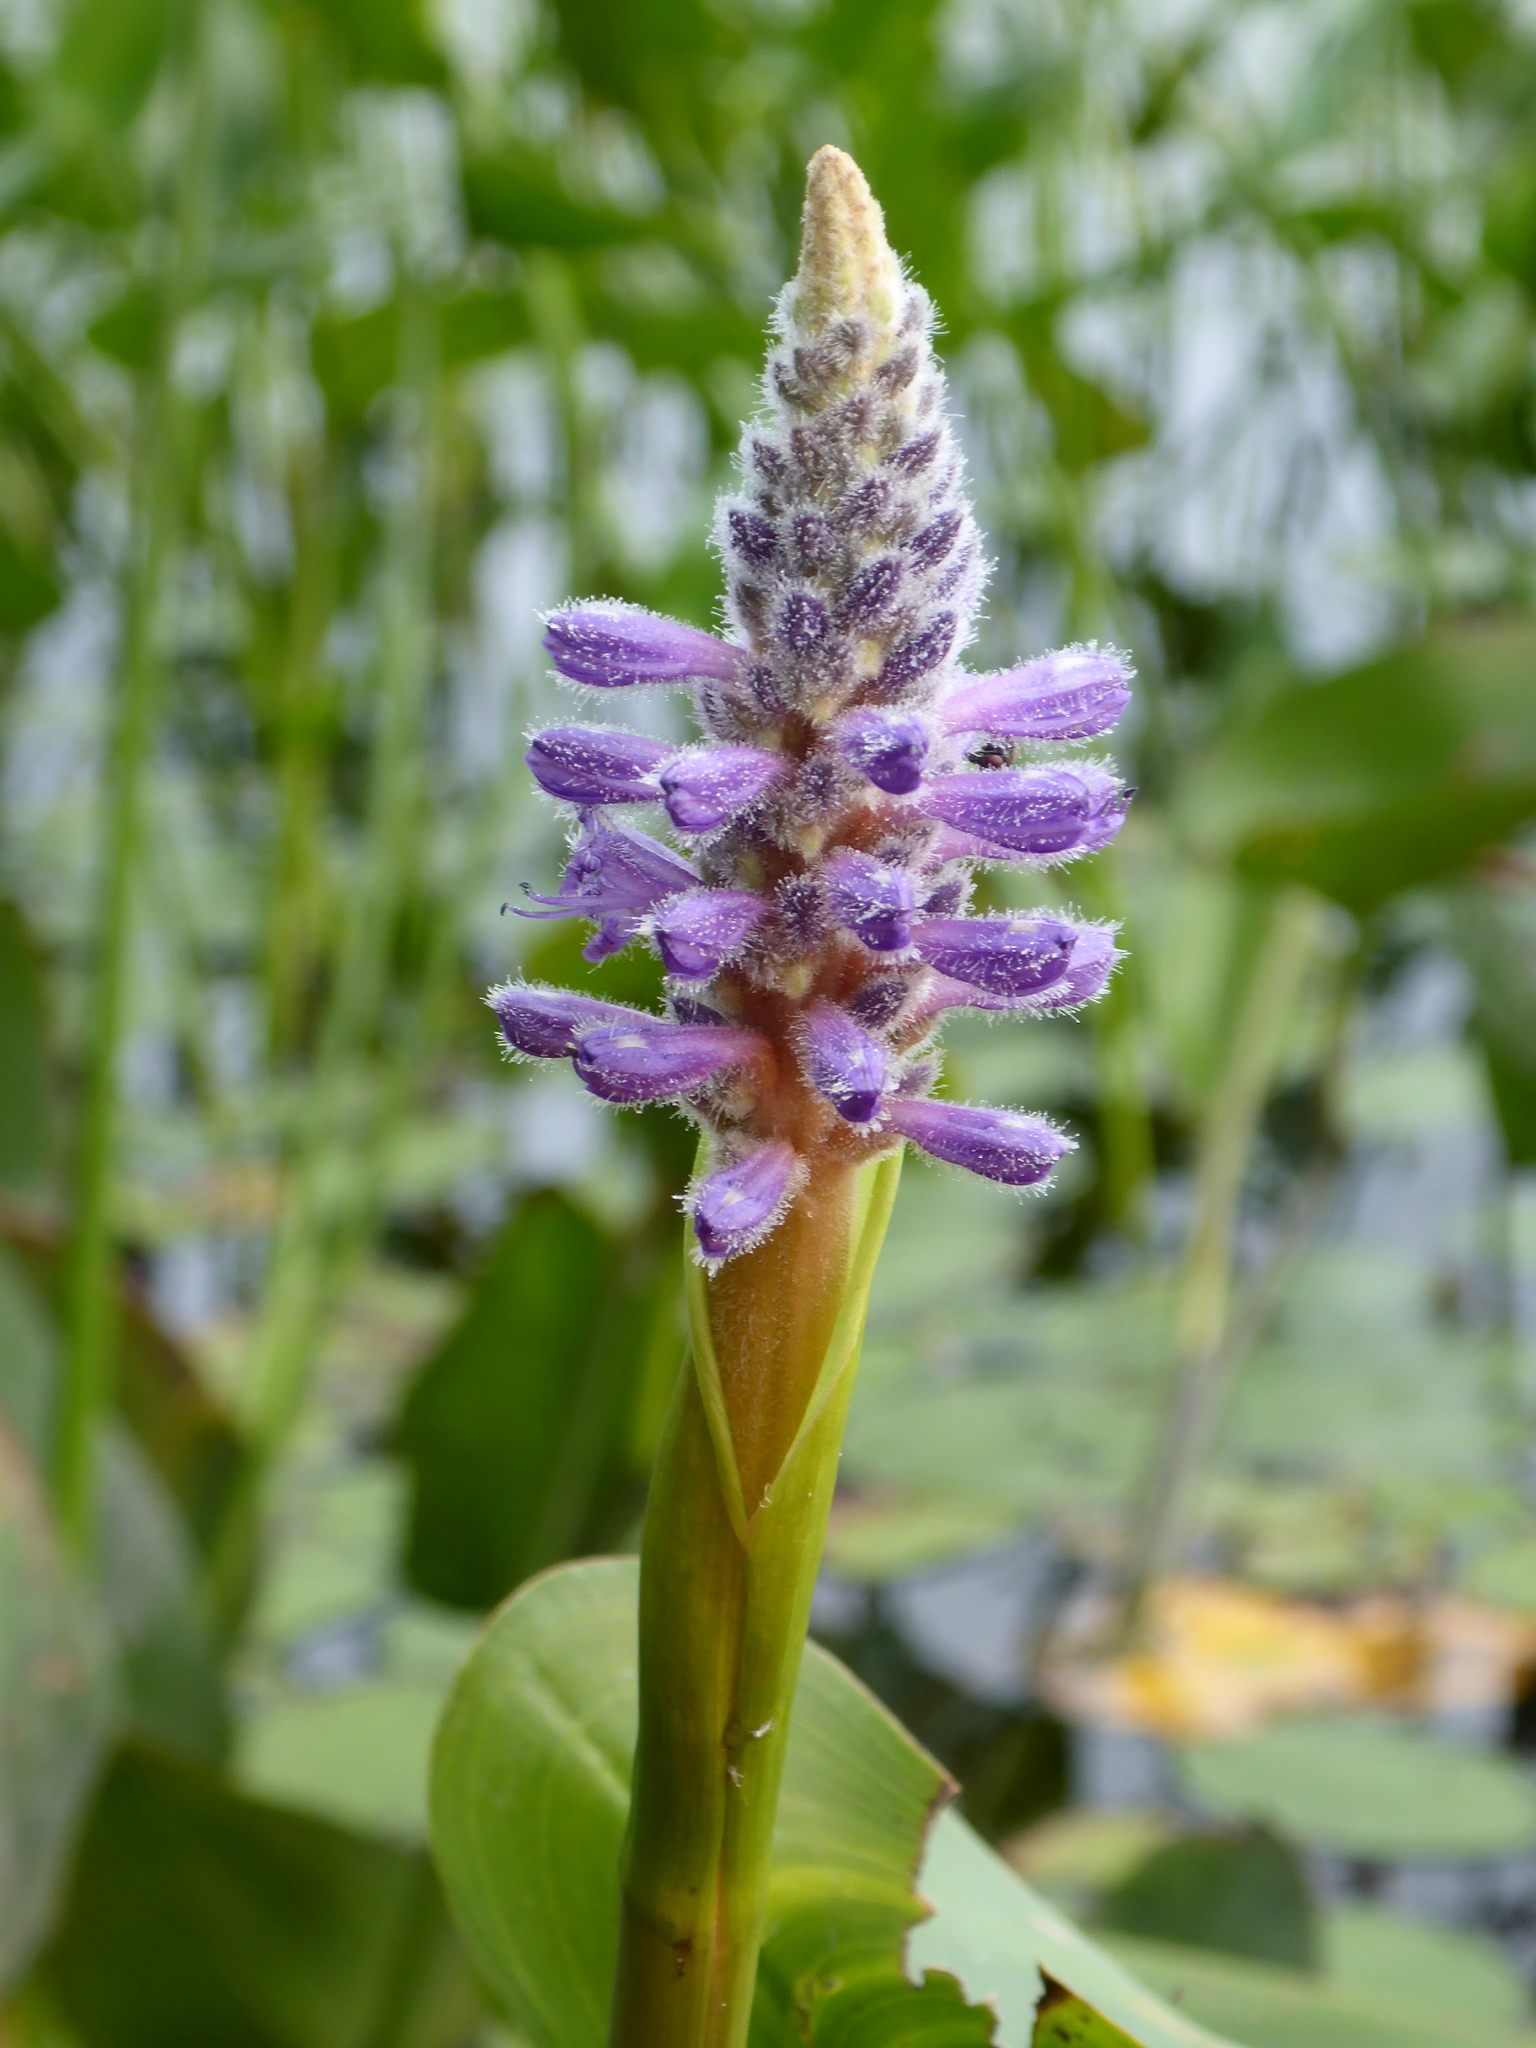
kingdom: Plantae
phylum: Tracheophyta
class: Liliopsida
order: Commelinales
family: Pontederiaceae
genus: Pontederia
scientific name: Pontederia cordata
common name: Pickerelweed
